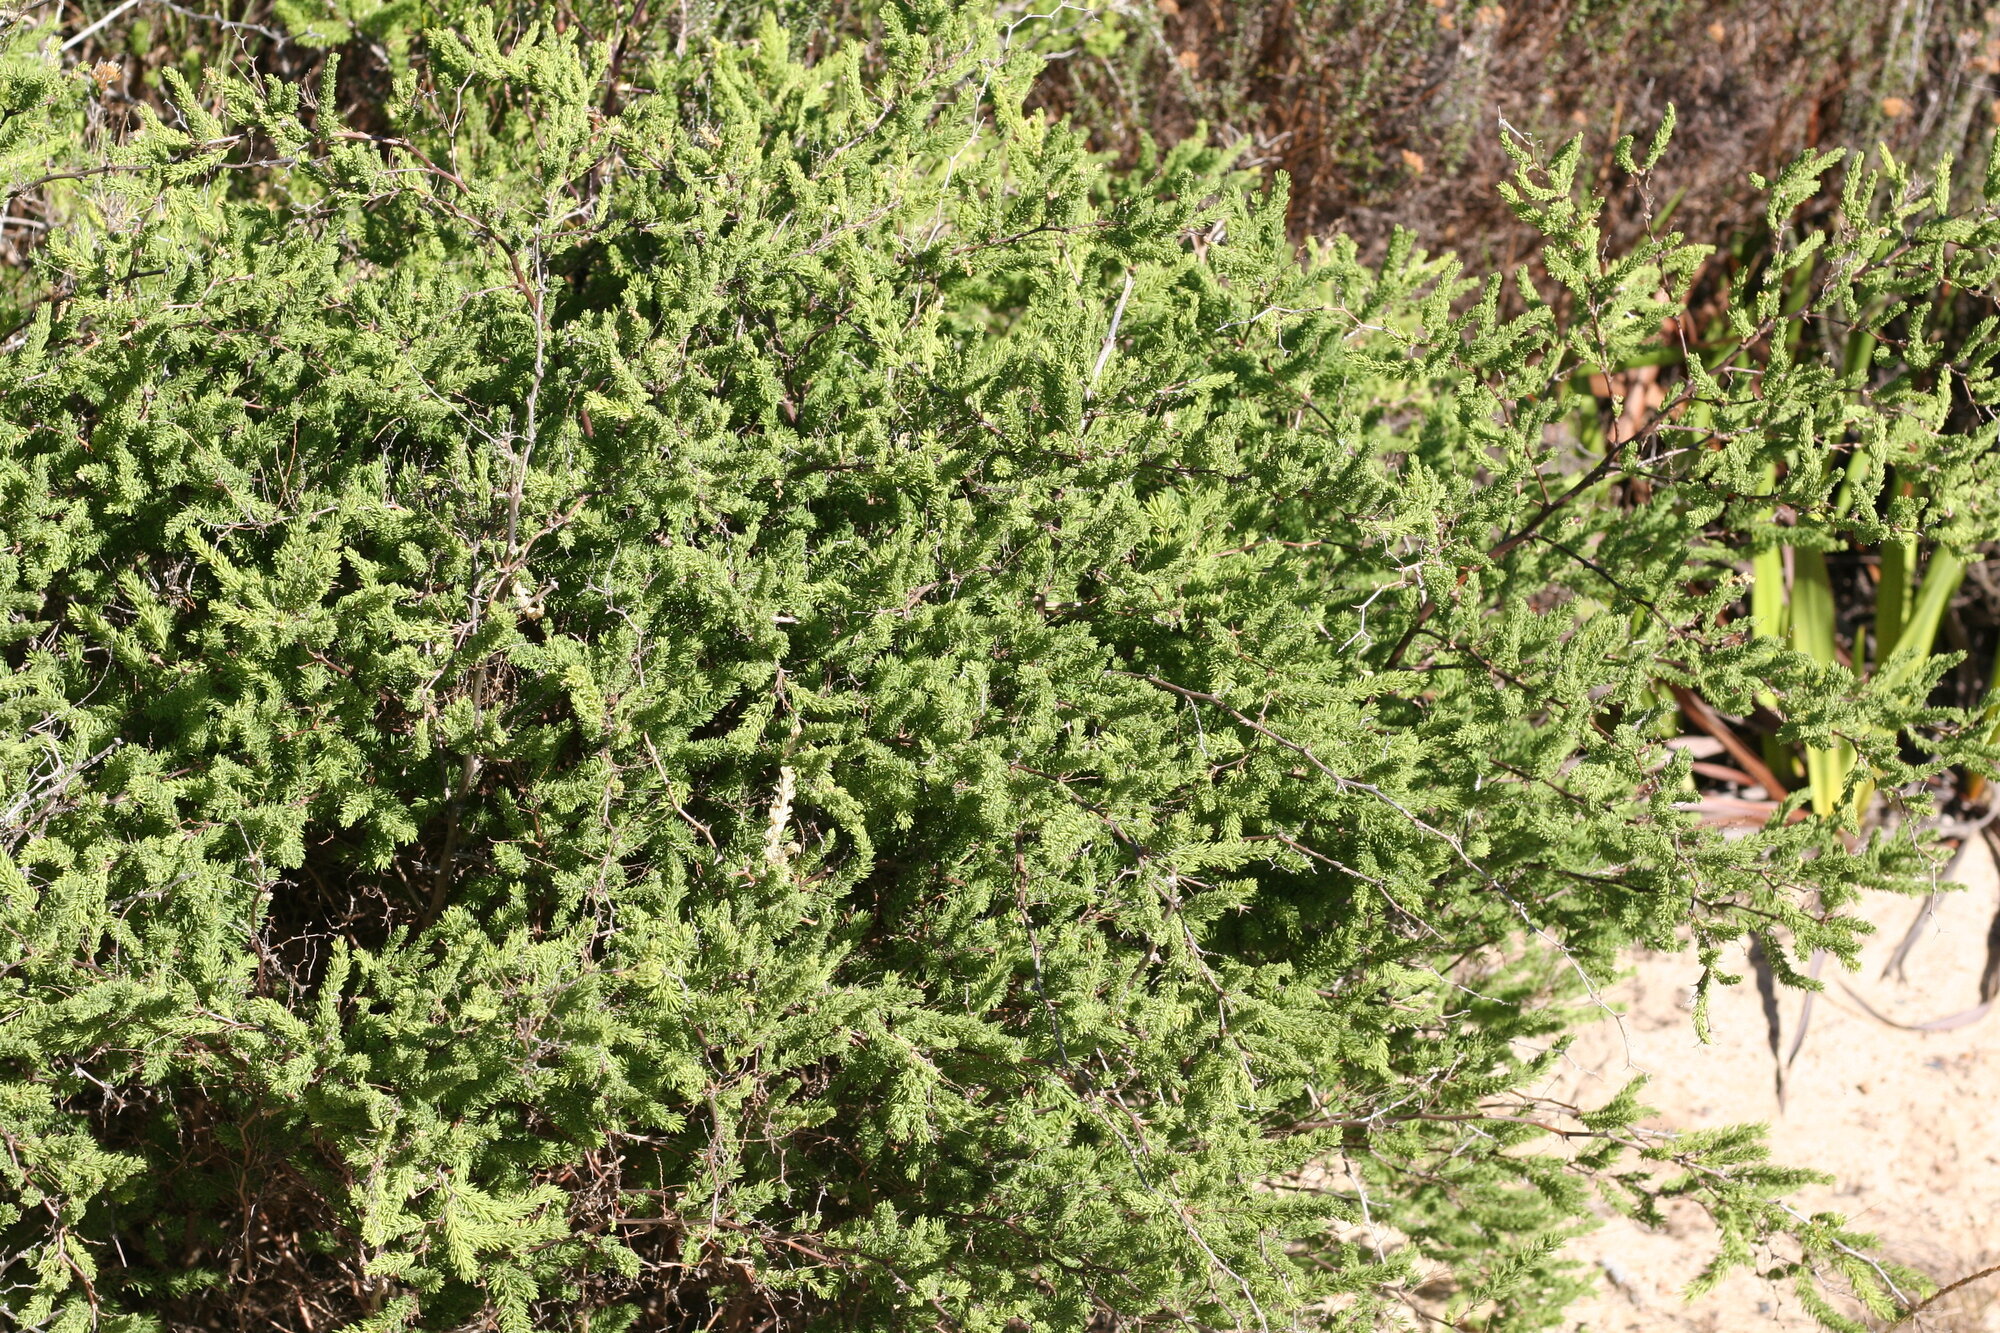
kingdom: Plantae
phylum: Tracheophyta
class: Liliopsida
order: Asparagales
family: Asparagaceae
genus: Asparagus
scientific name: Asparagus rubicundus
